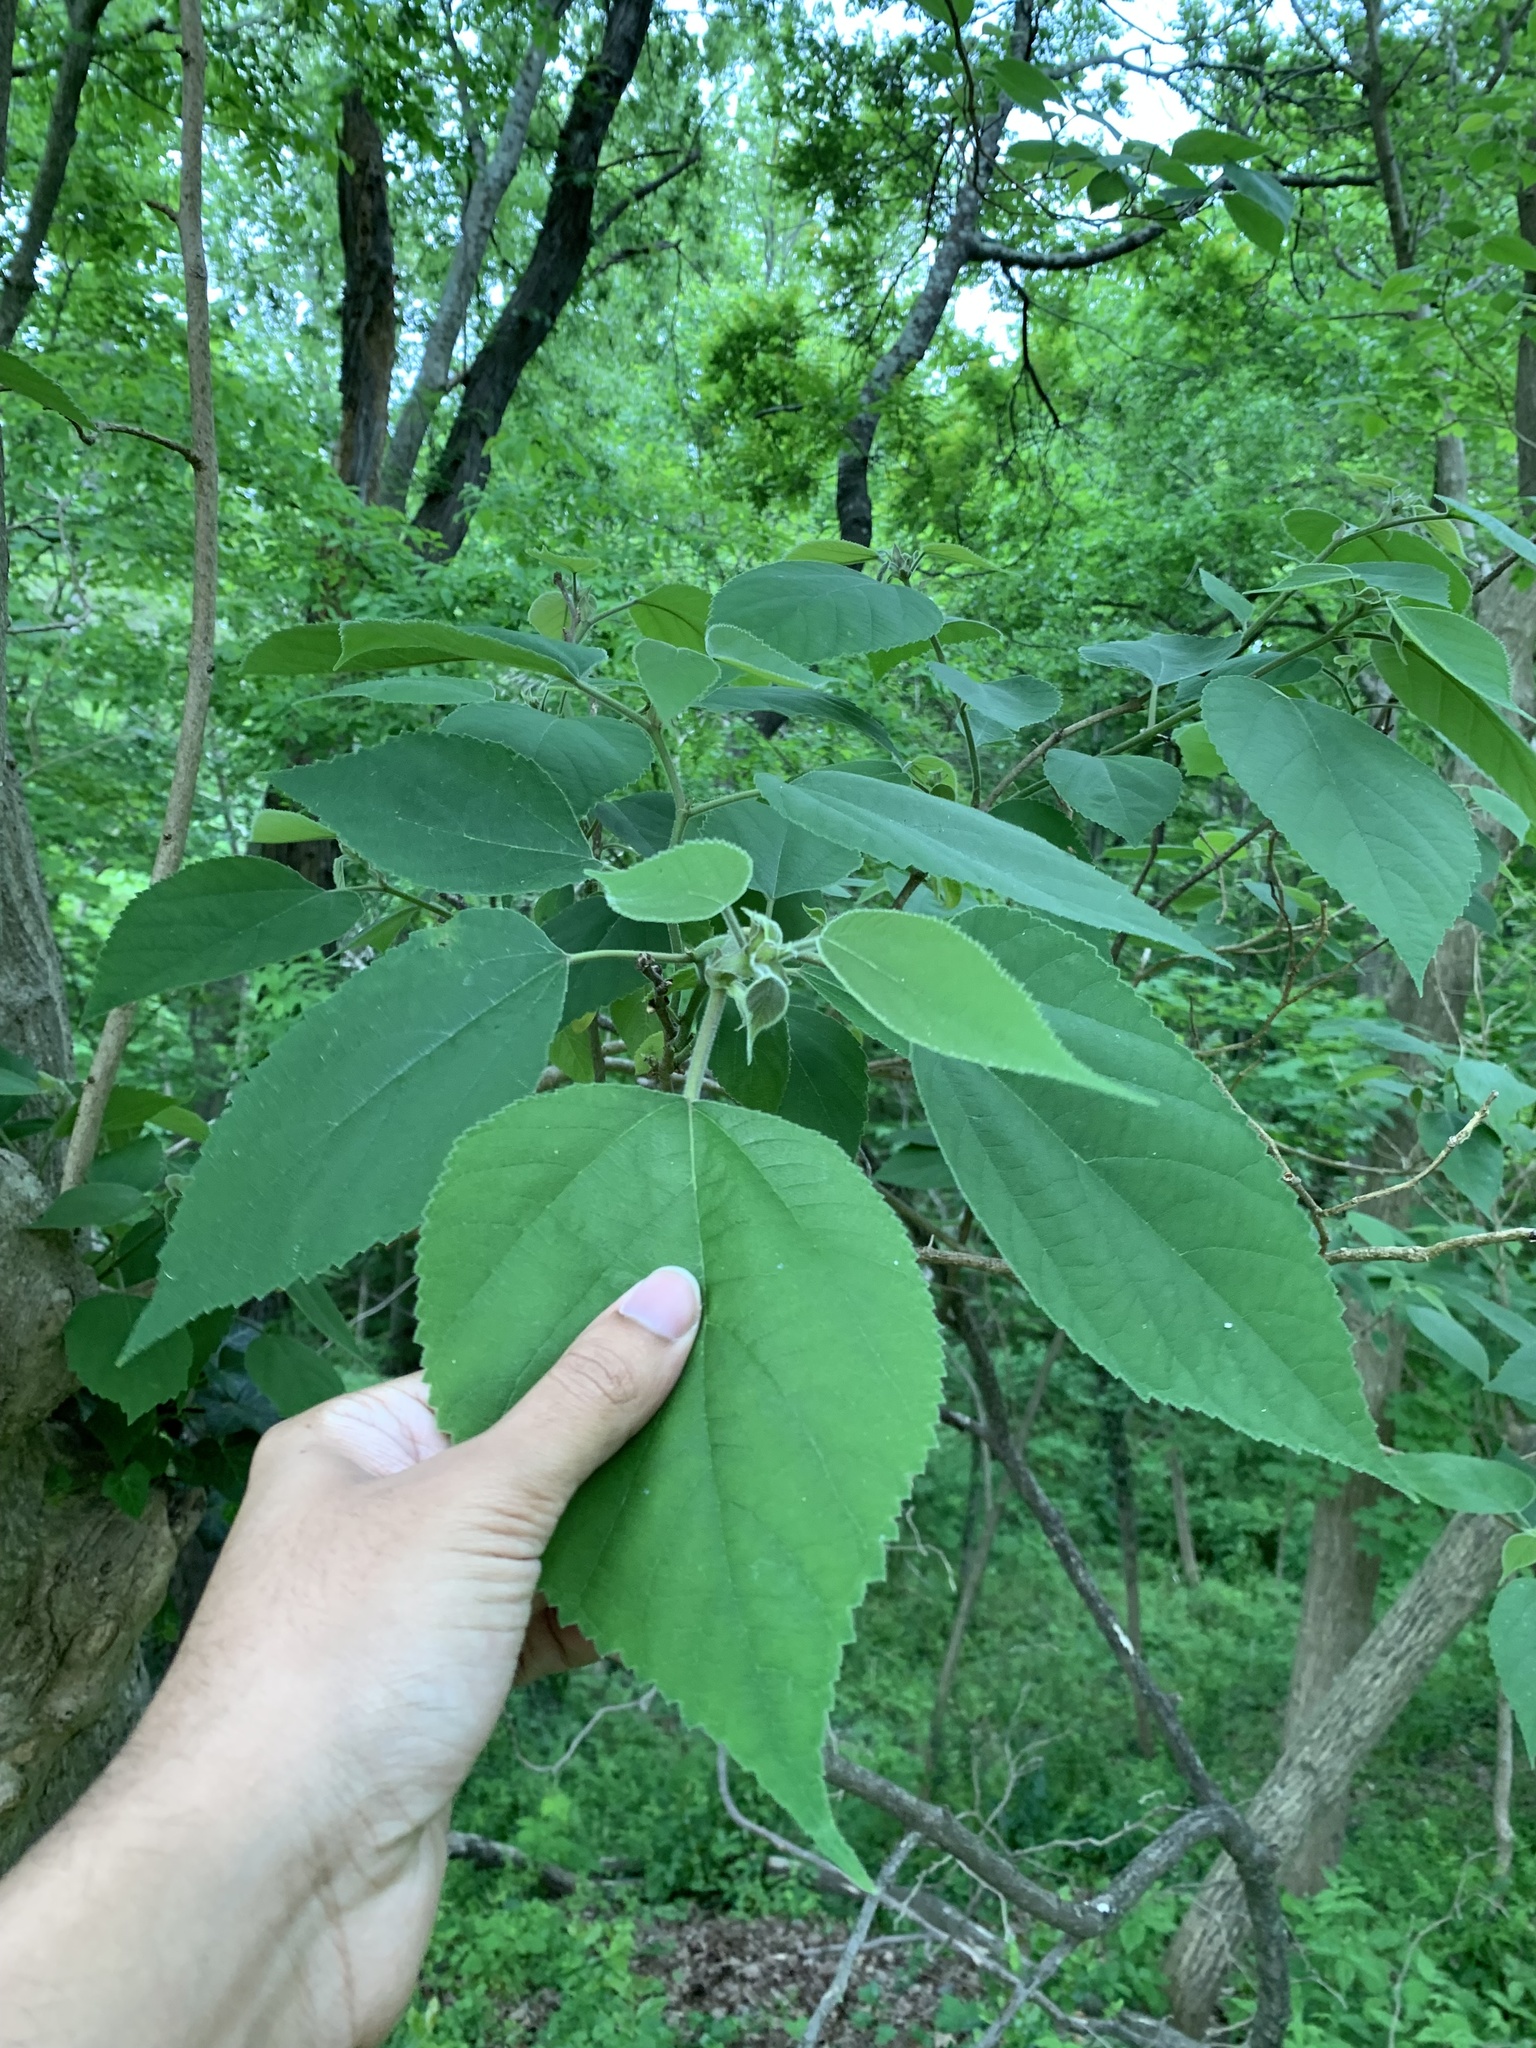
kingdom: Plantae
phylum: Tracheophyta
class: Magnoliopsida
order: Rosales
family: Moraceae
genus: Broussonetia
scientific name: Broussonetia papyrifera
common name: Paper mulberry
